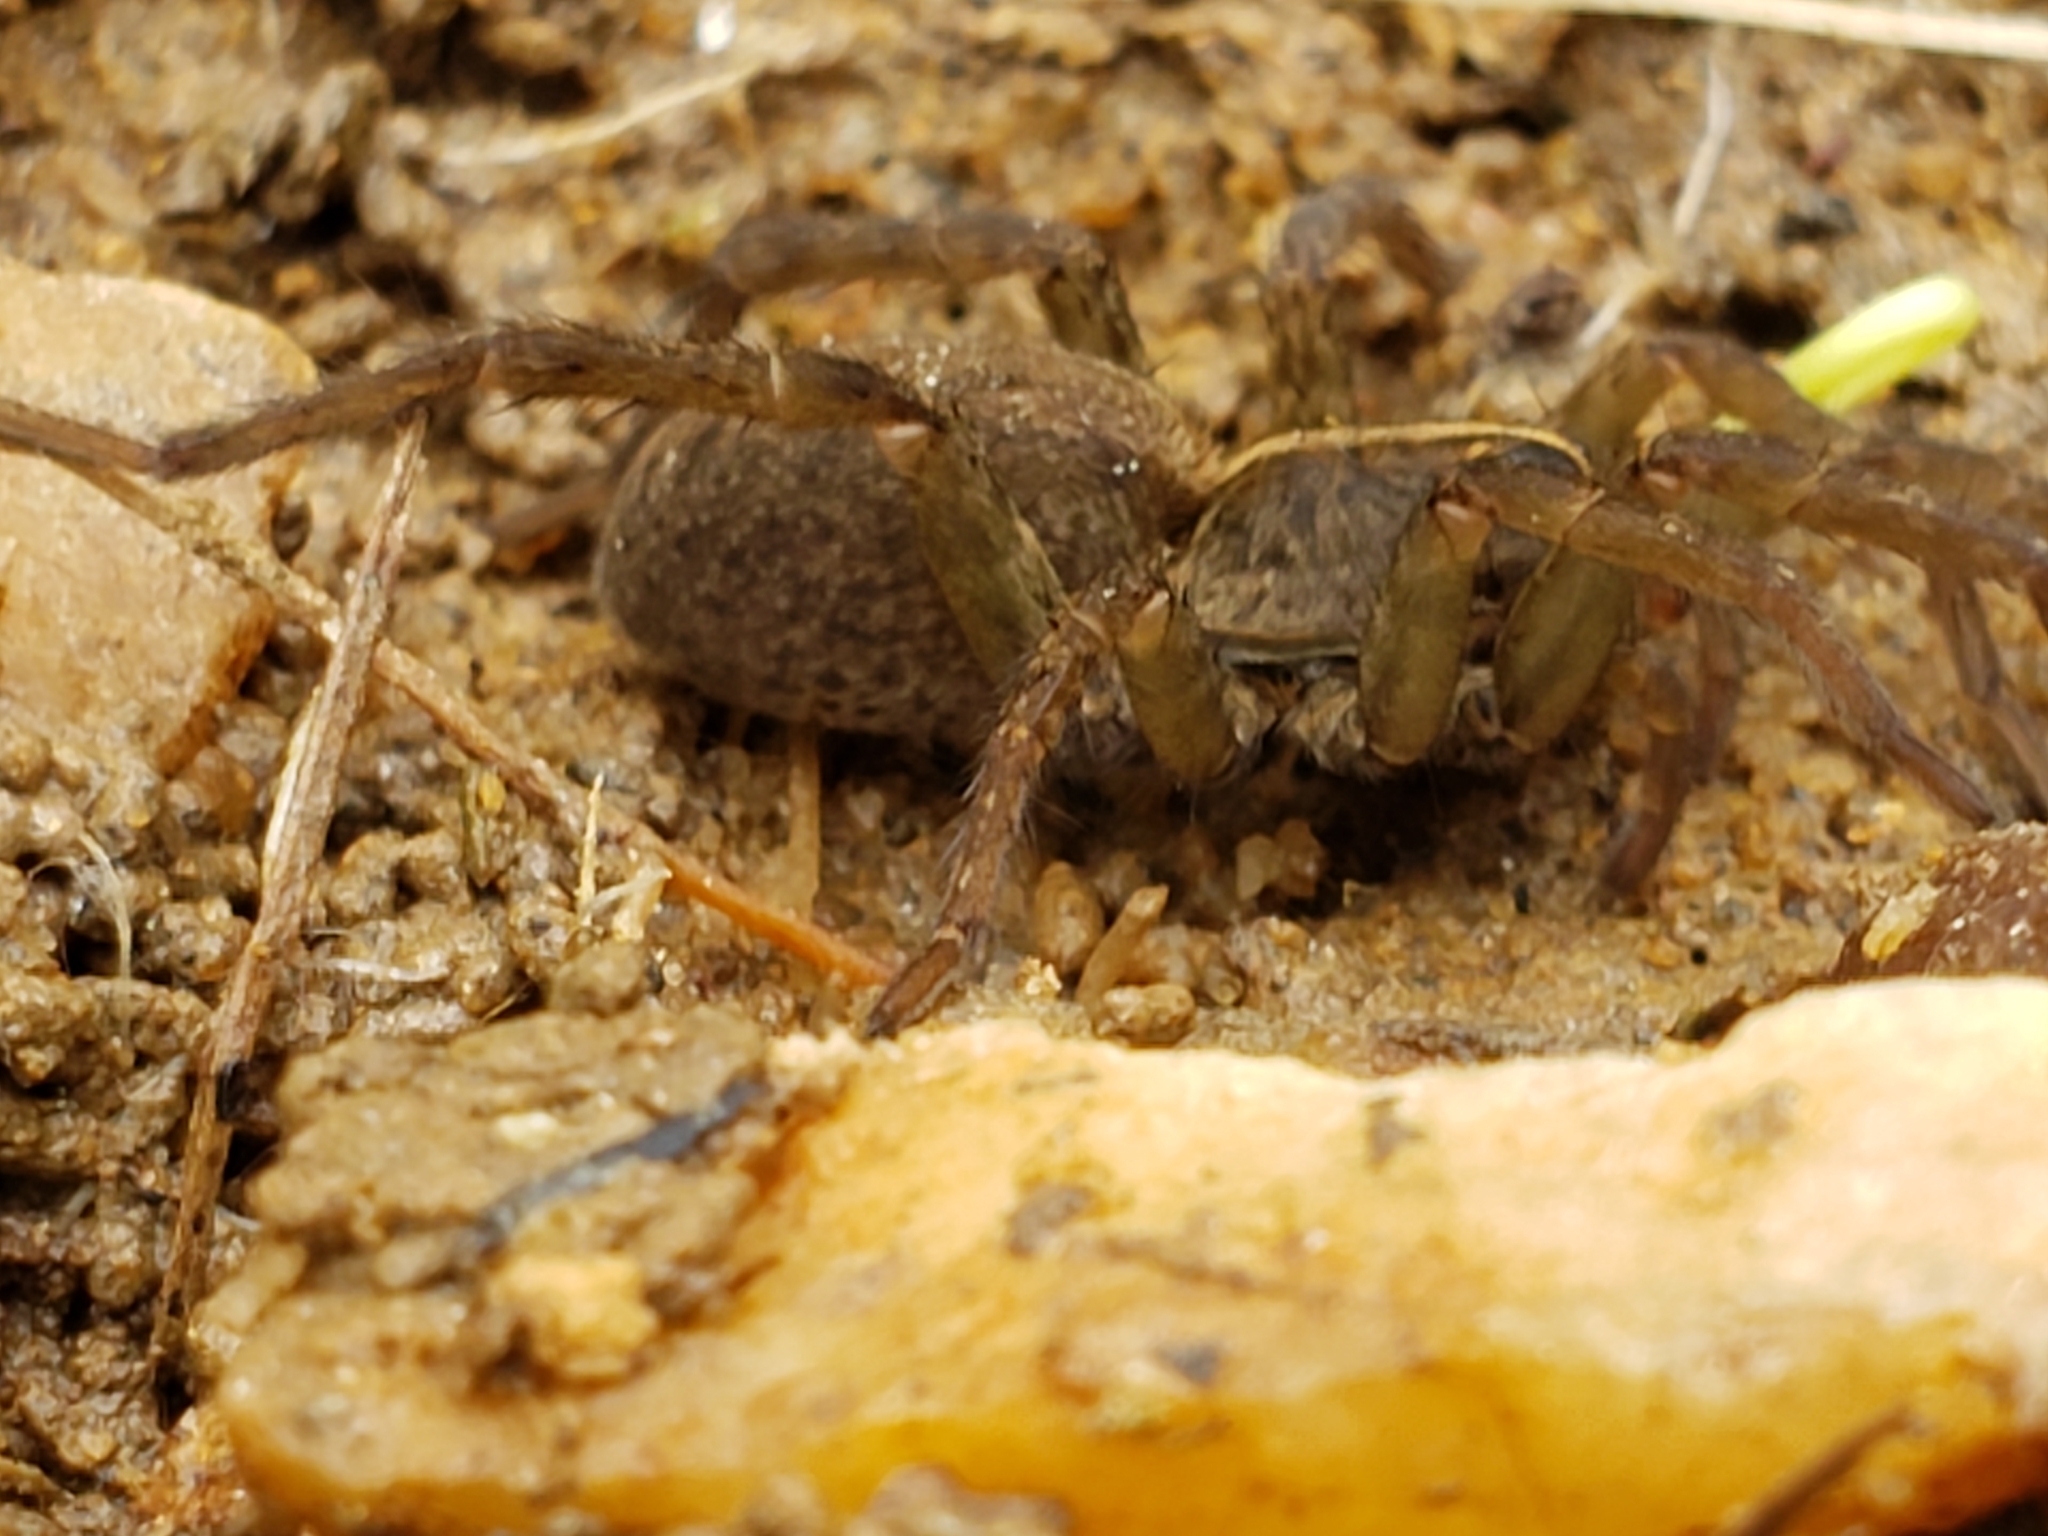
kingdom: Animalia
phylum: Arthropoda
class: Arachnida
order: Araneae
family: Lycosidae
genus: Tigrosa
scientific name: Tigrosa helluo
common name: Wetland giant wolf spider
